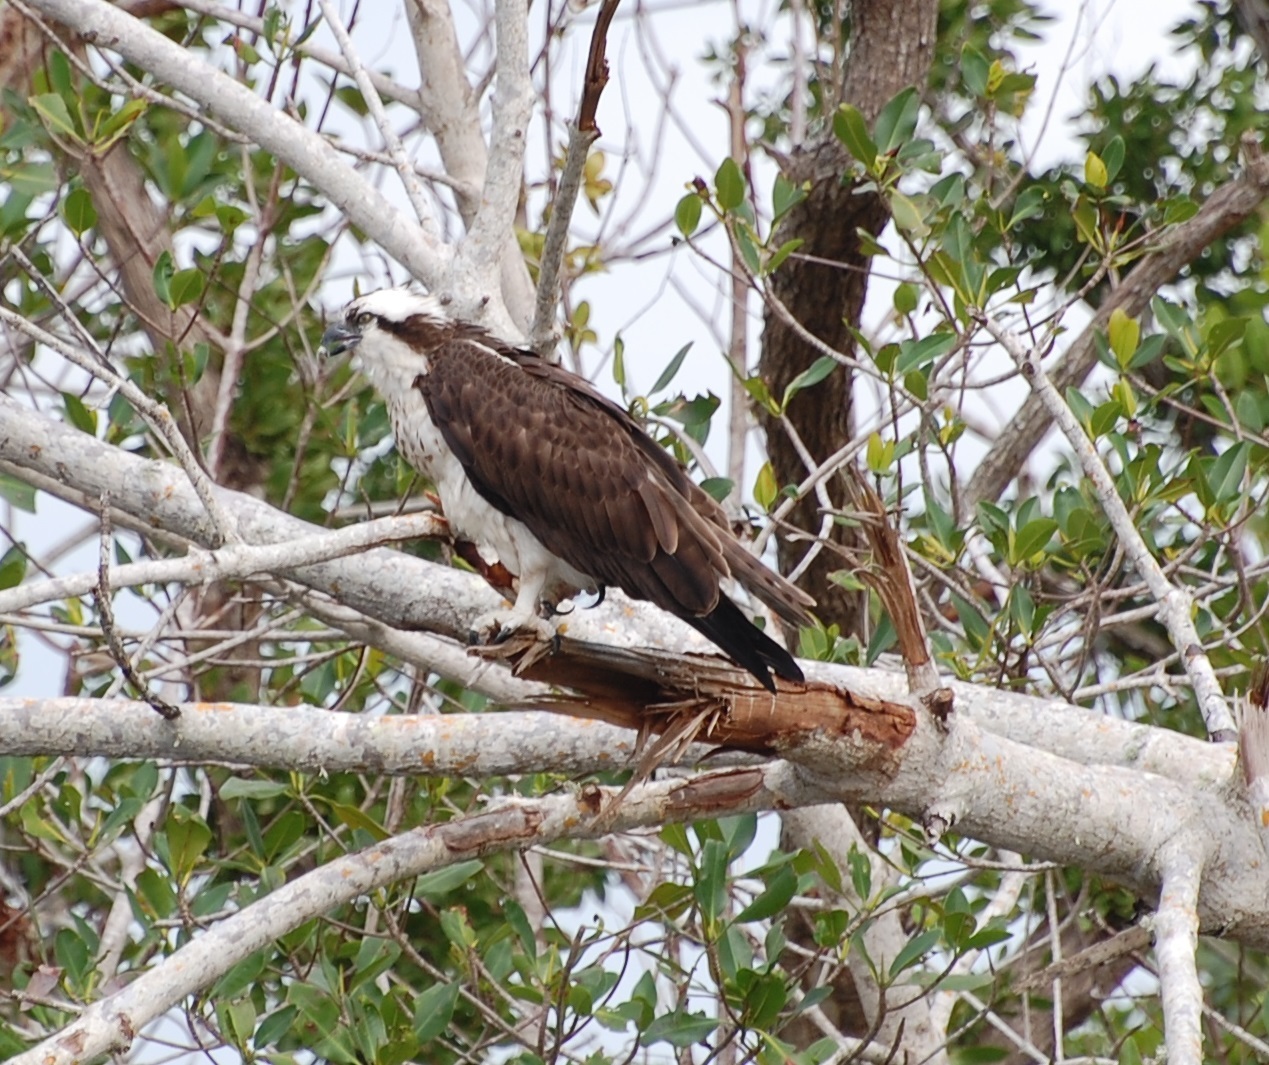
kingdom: Animalia
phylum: Chordata
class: Aves
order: Accipitriformes
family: Pandionidae
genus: Pandion
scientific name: Pandion haliaetus
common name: Osprey
